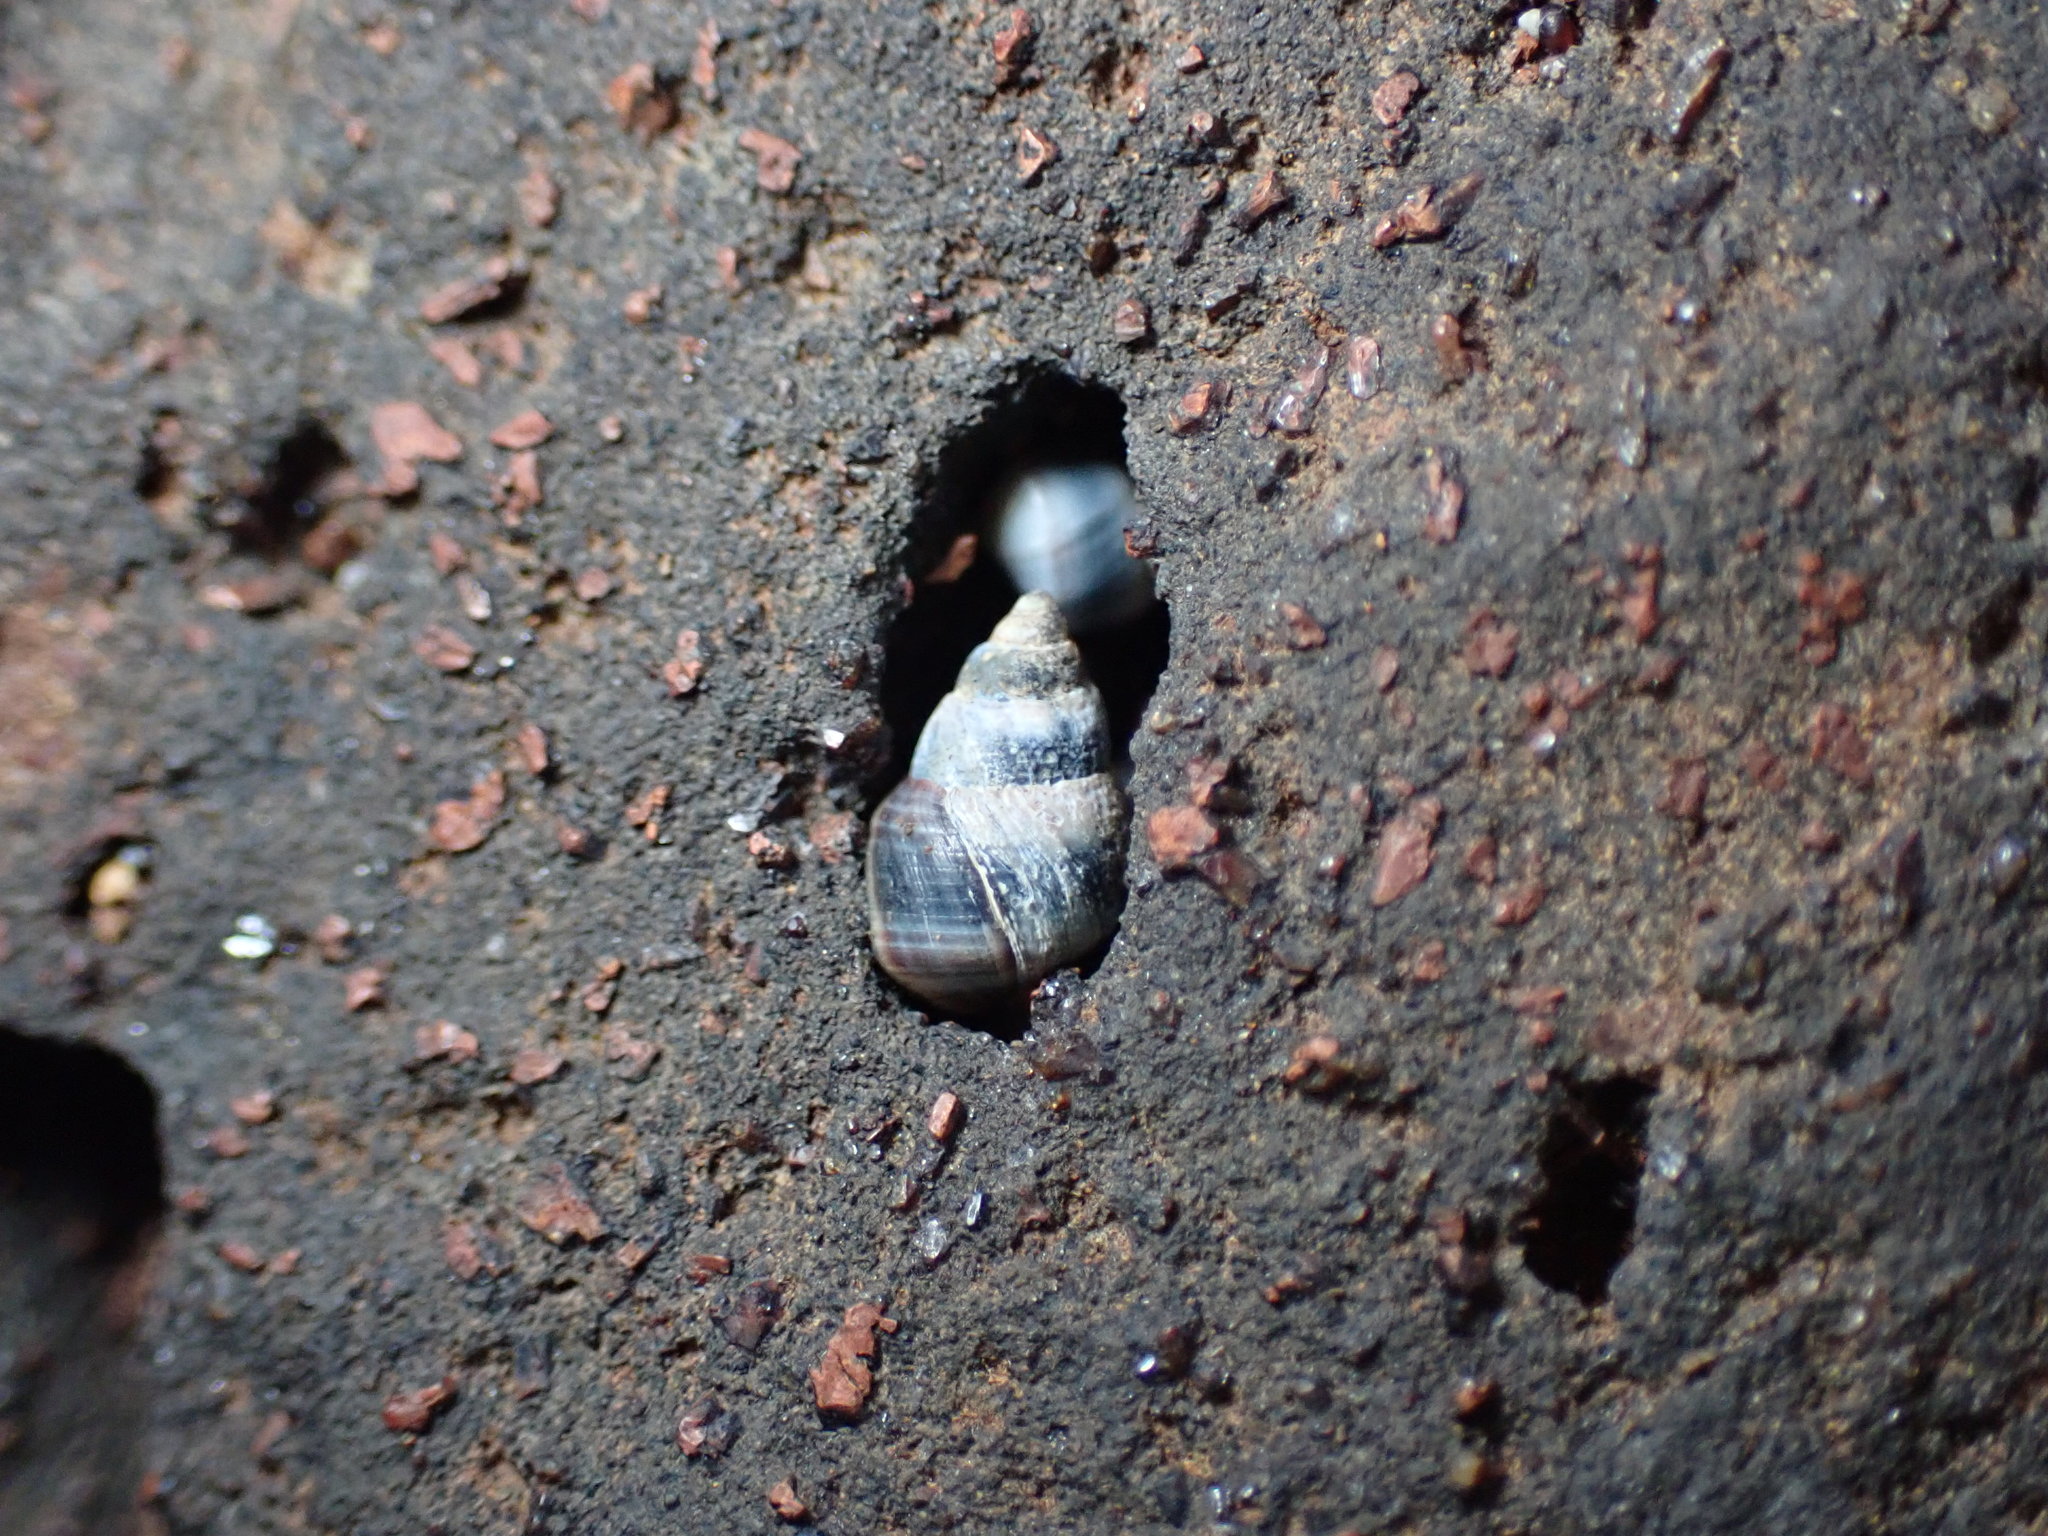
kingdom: Animalia
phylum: Mollusca
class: Gastropoda
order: Littorinimorpha
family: Littorinidae
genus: Austrolittorina
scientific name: Austrolittorina antipodum
